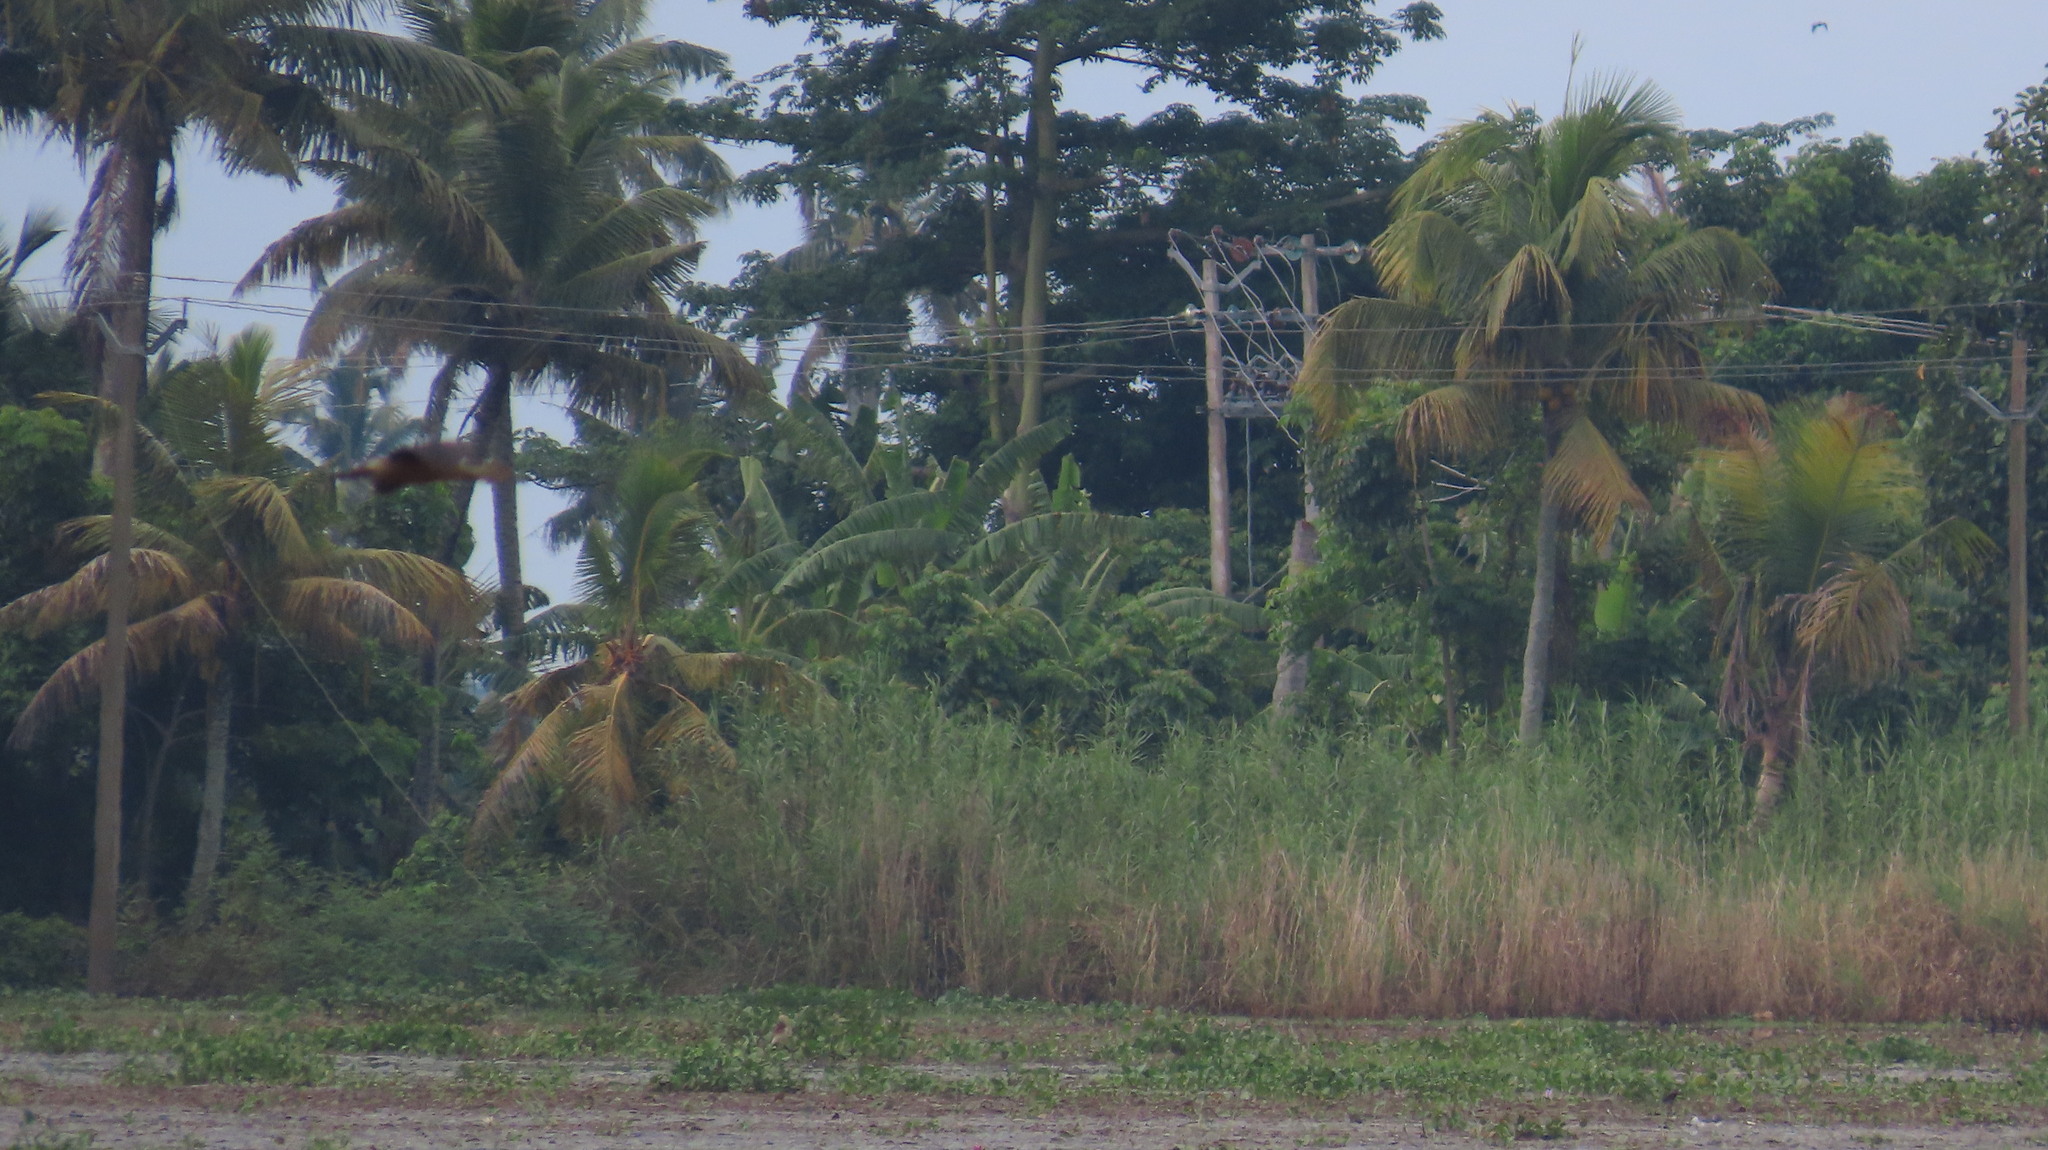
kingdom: Animalia
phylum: Chordata
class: Aves
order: Anseriformes
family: Anatidae
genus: Dendrocygna
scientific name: Dendrocygna javanica
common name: Lesser whistling-duck
